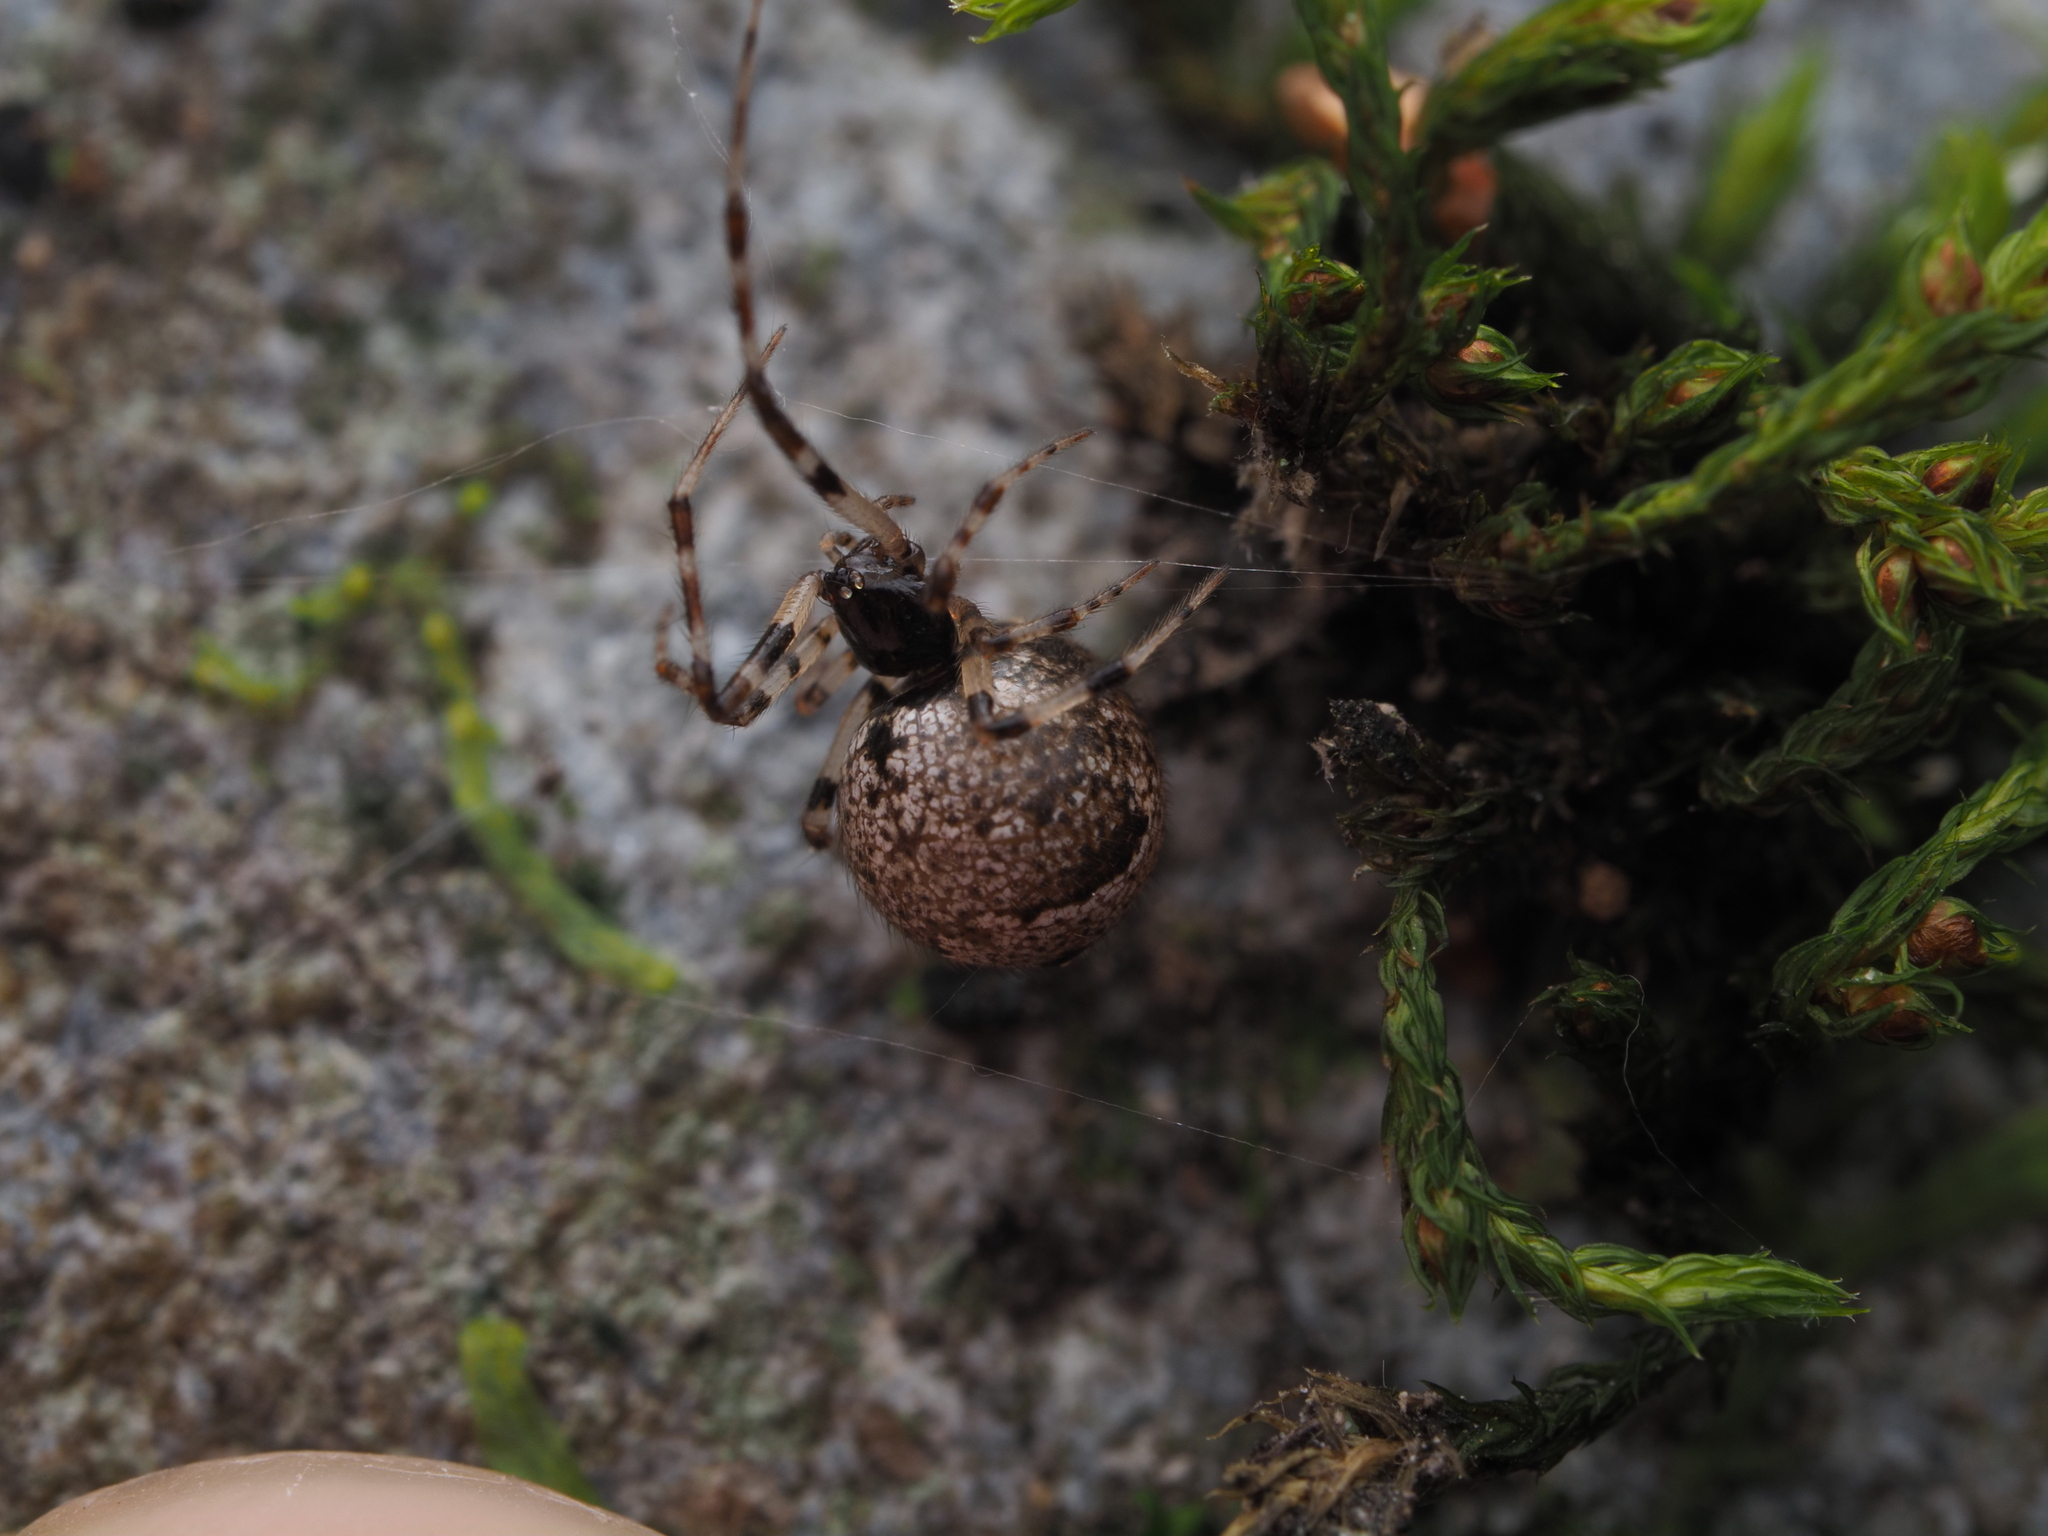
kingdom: Animalia
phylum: Arthropoda
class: Arachnida
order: Araneae
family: Theridiidae
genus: Cryptachaea
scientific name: Cryptachaea blattea
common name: Theridiid spider
